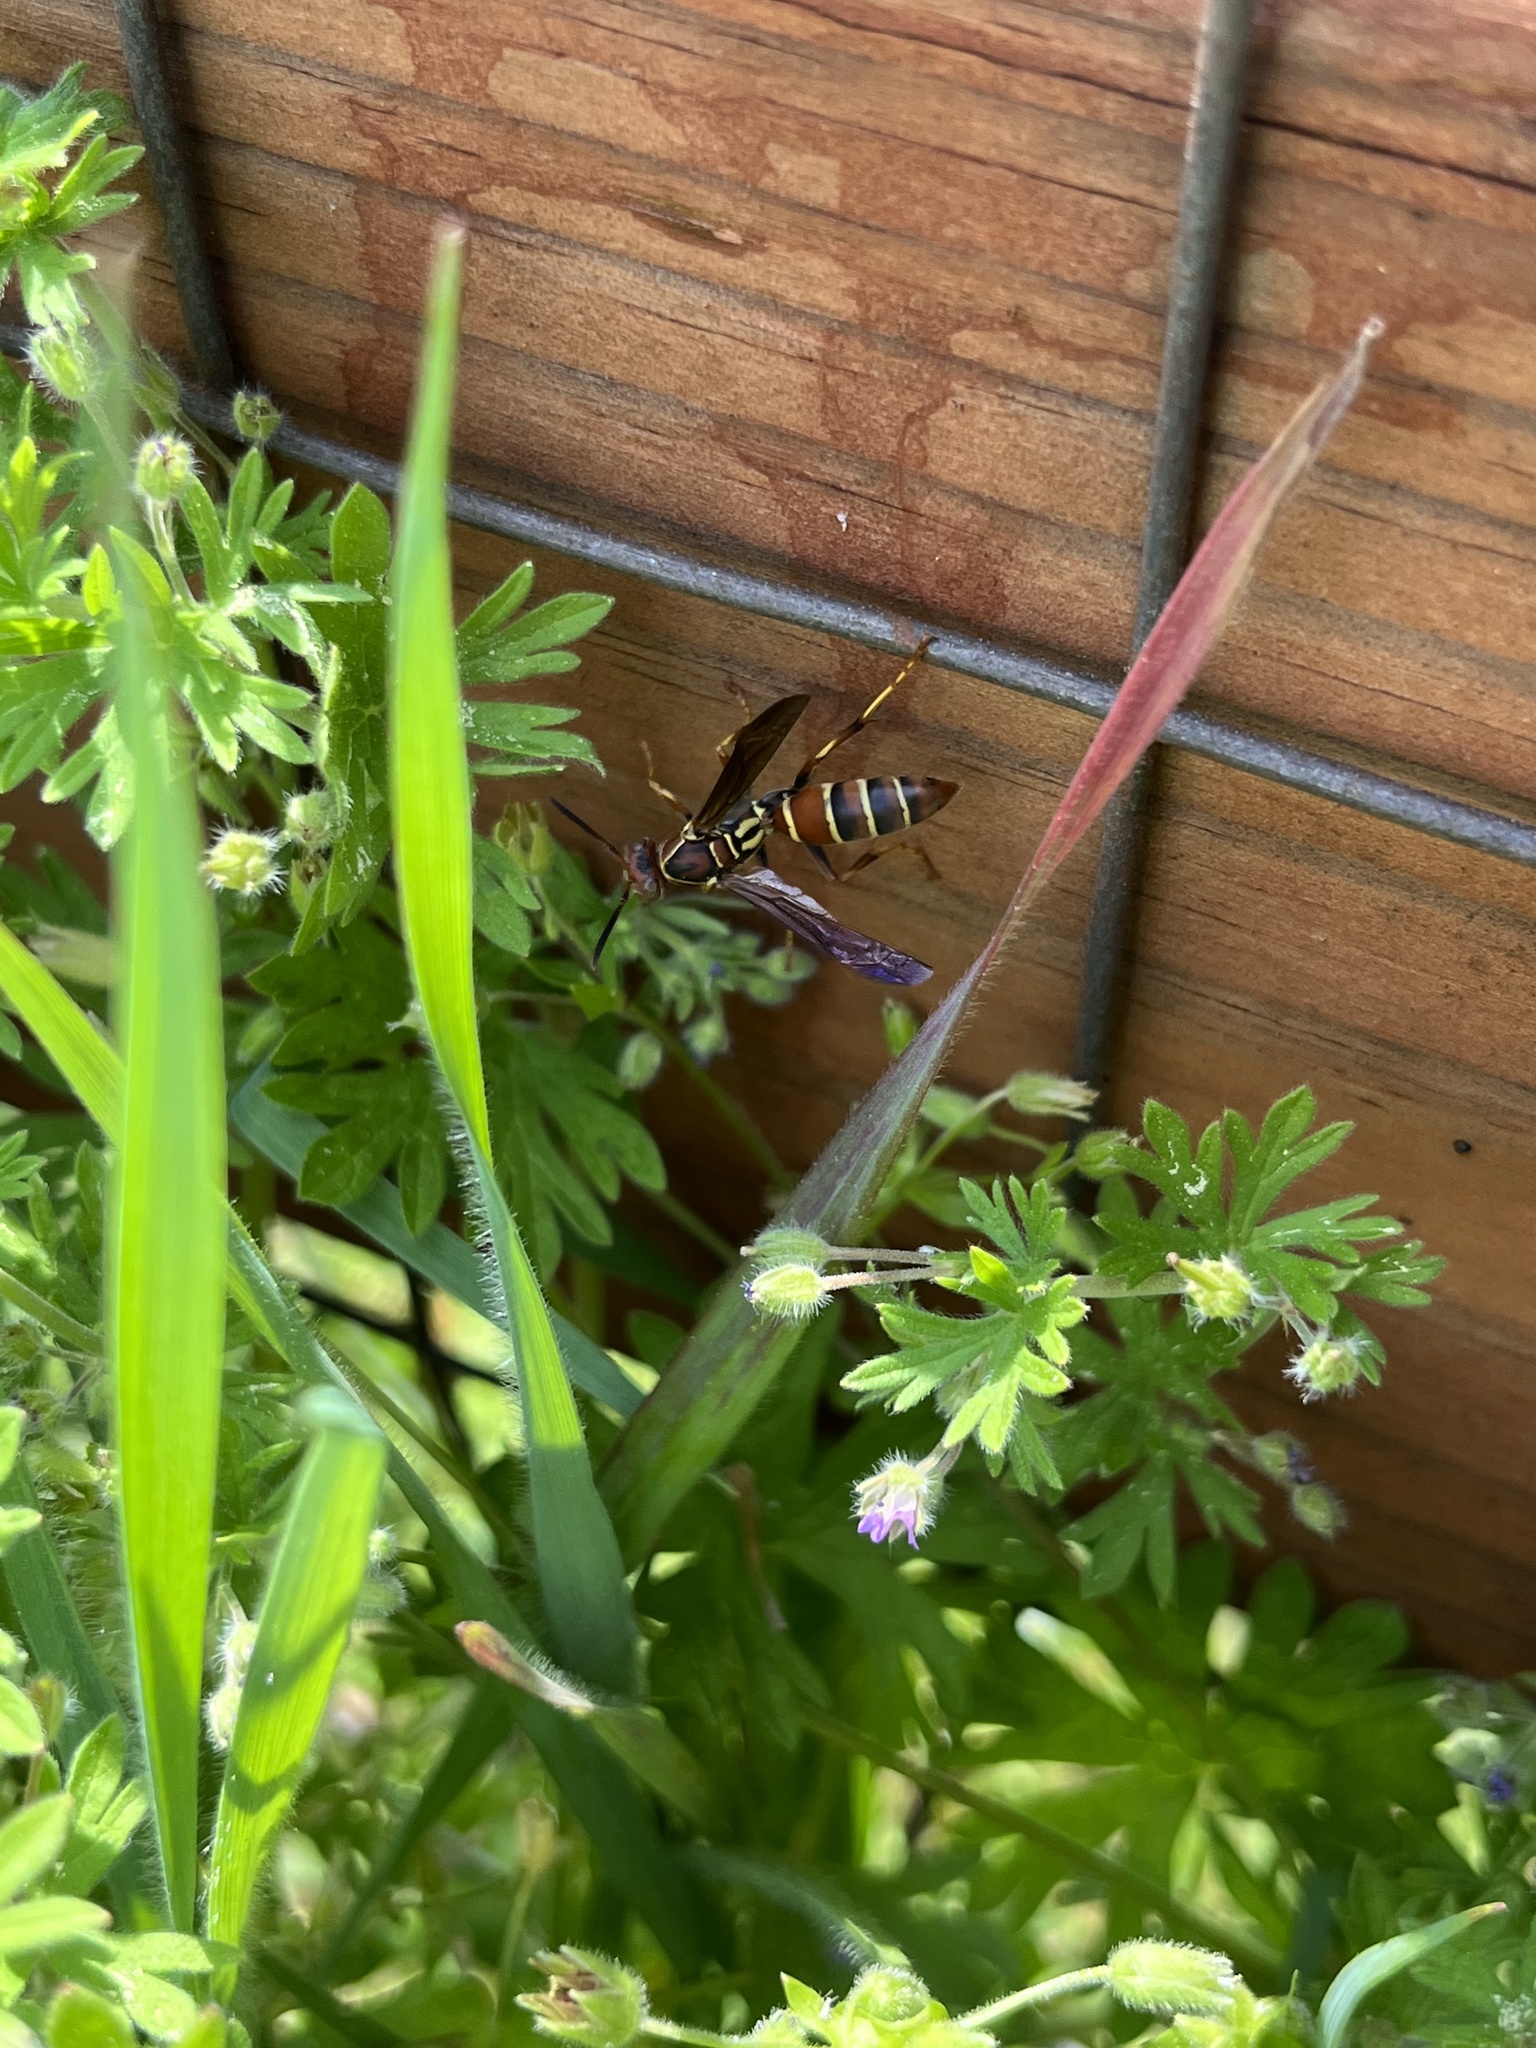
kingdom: Animalia
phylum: Arthropoda
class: Insecta
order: Hymenoptera
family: Eumenidae
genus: Polistes
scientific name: Polistes dorsalis
